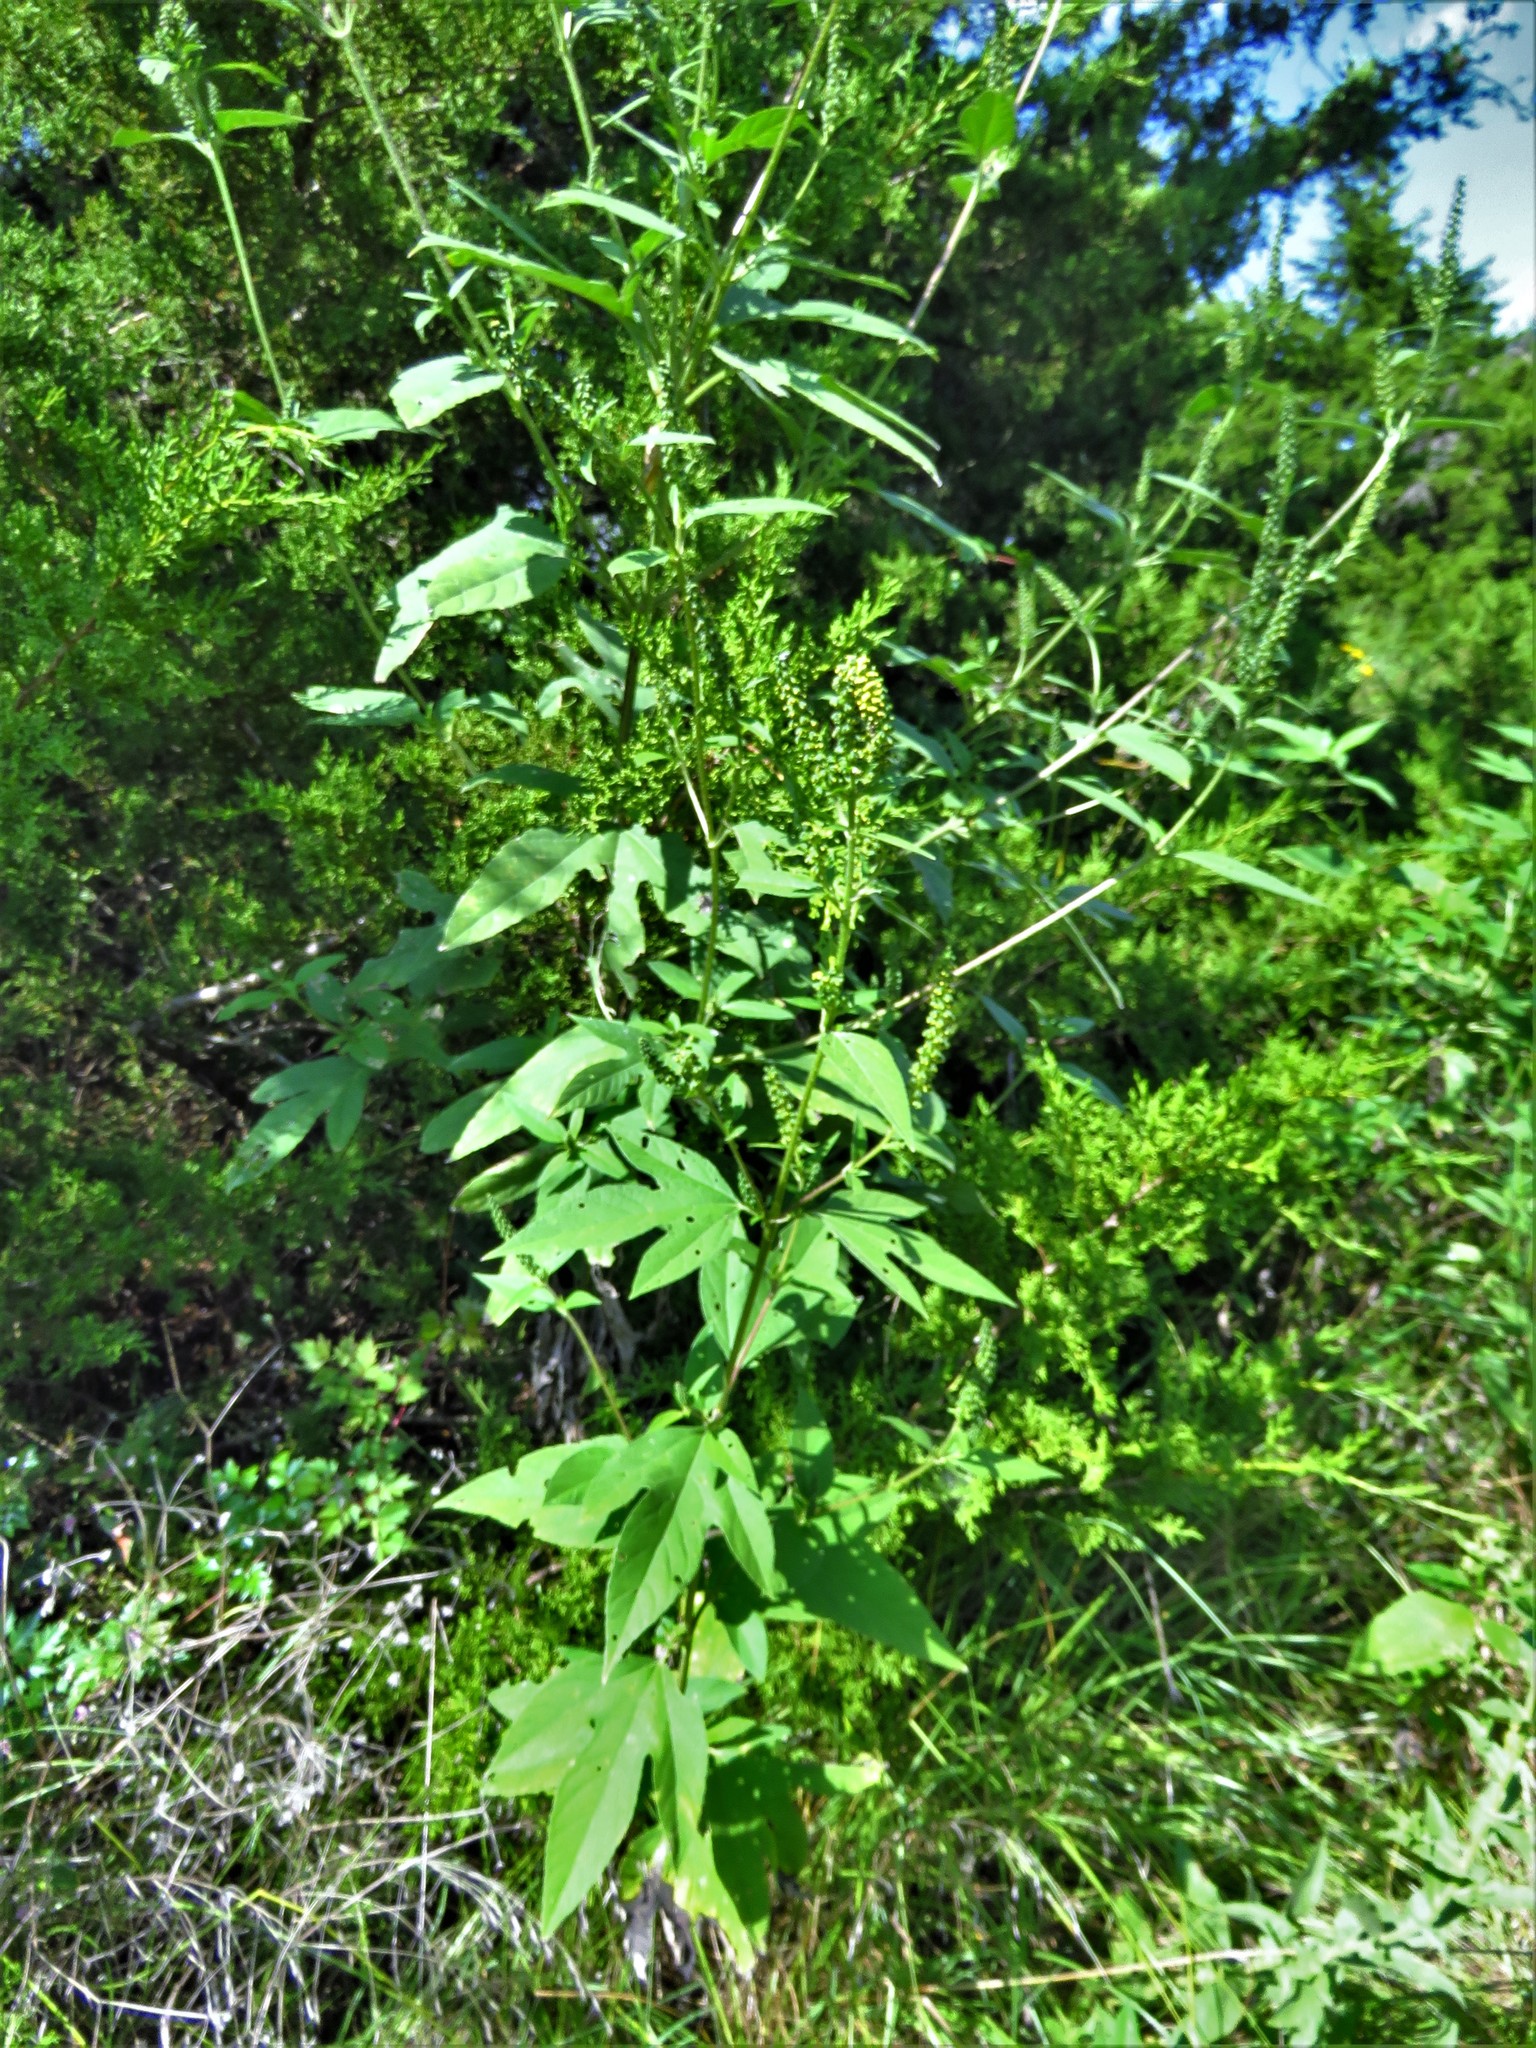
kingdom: Plantae
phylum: Tracheophyta
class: Magnoliopsida
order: Asterales
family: Asteraceae
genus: Ambrosia
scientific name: Ambrosia trifida
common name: Giant ragweed
